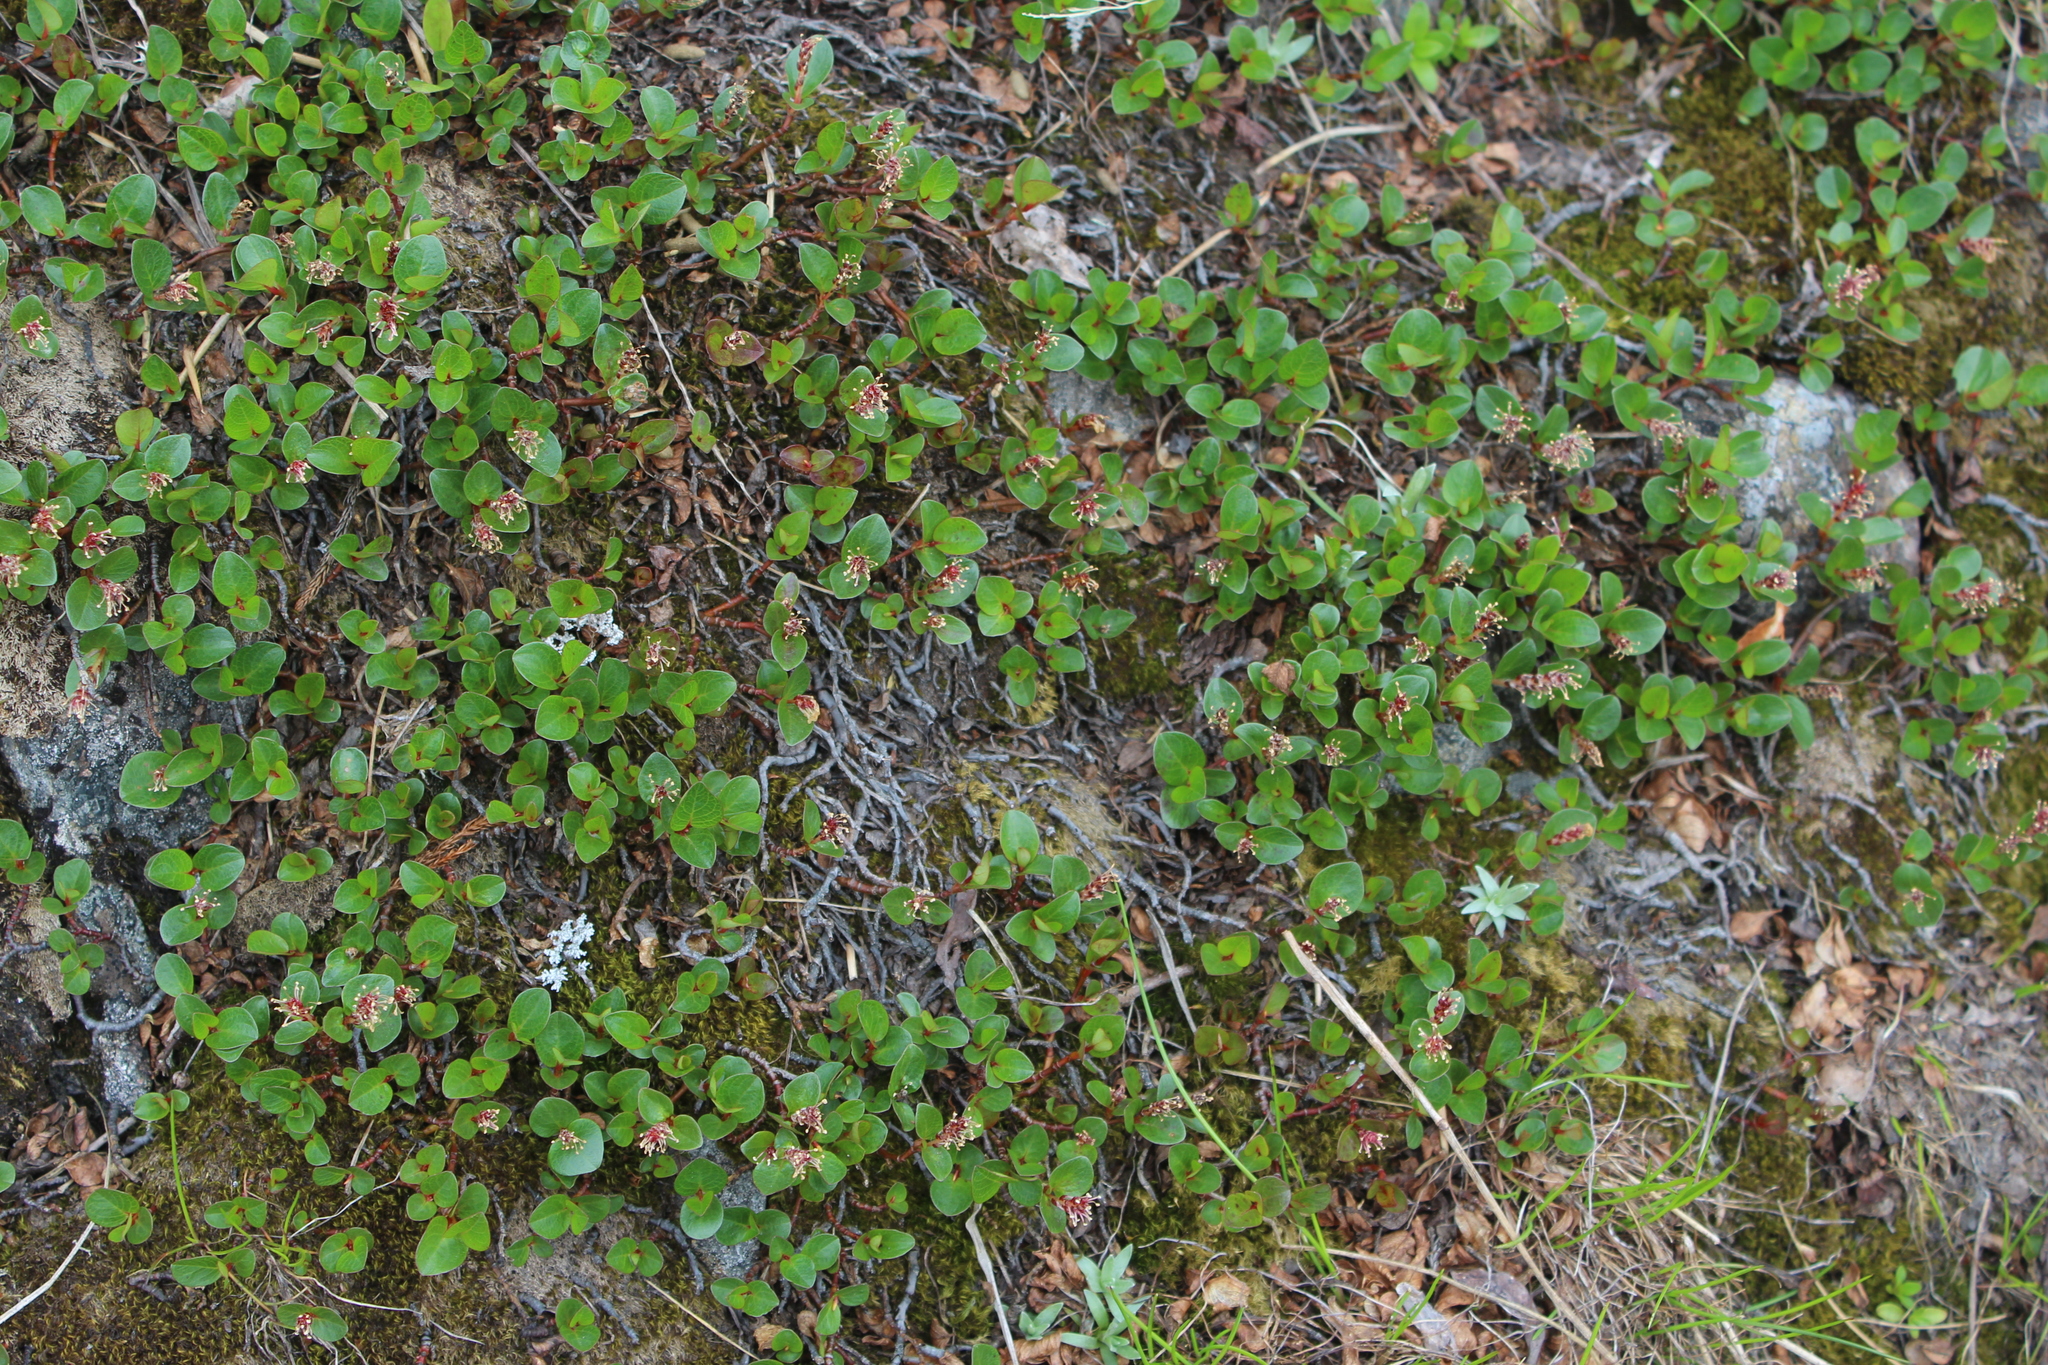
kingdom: Plantae
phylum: Tracheophyta
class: Magnoliopsida
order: Malpighiales
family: Salicaceae
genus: Salix
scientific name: Salix herbacea
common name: Dwarf willow
